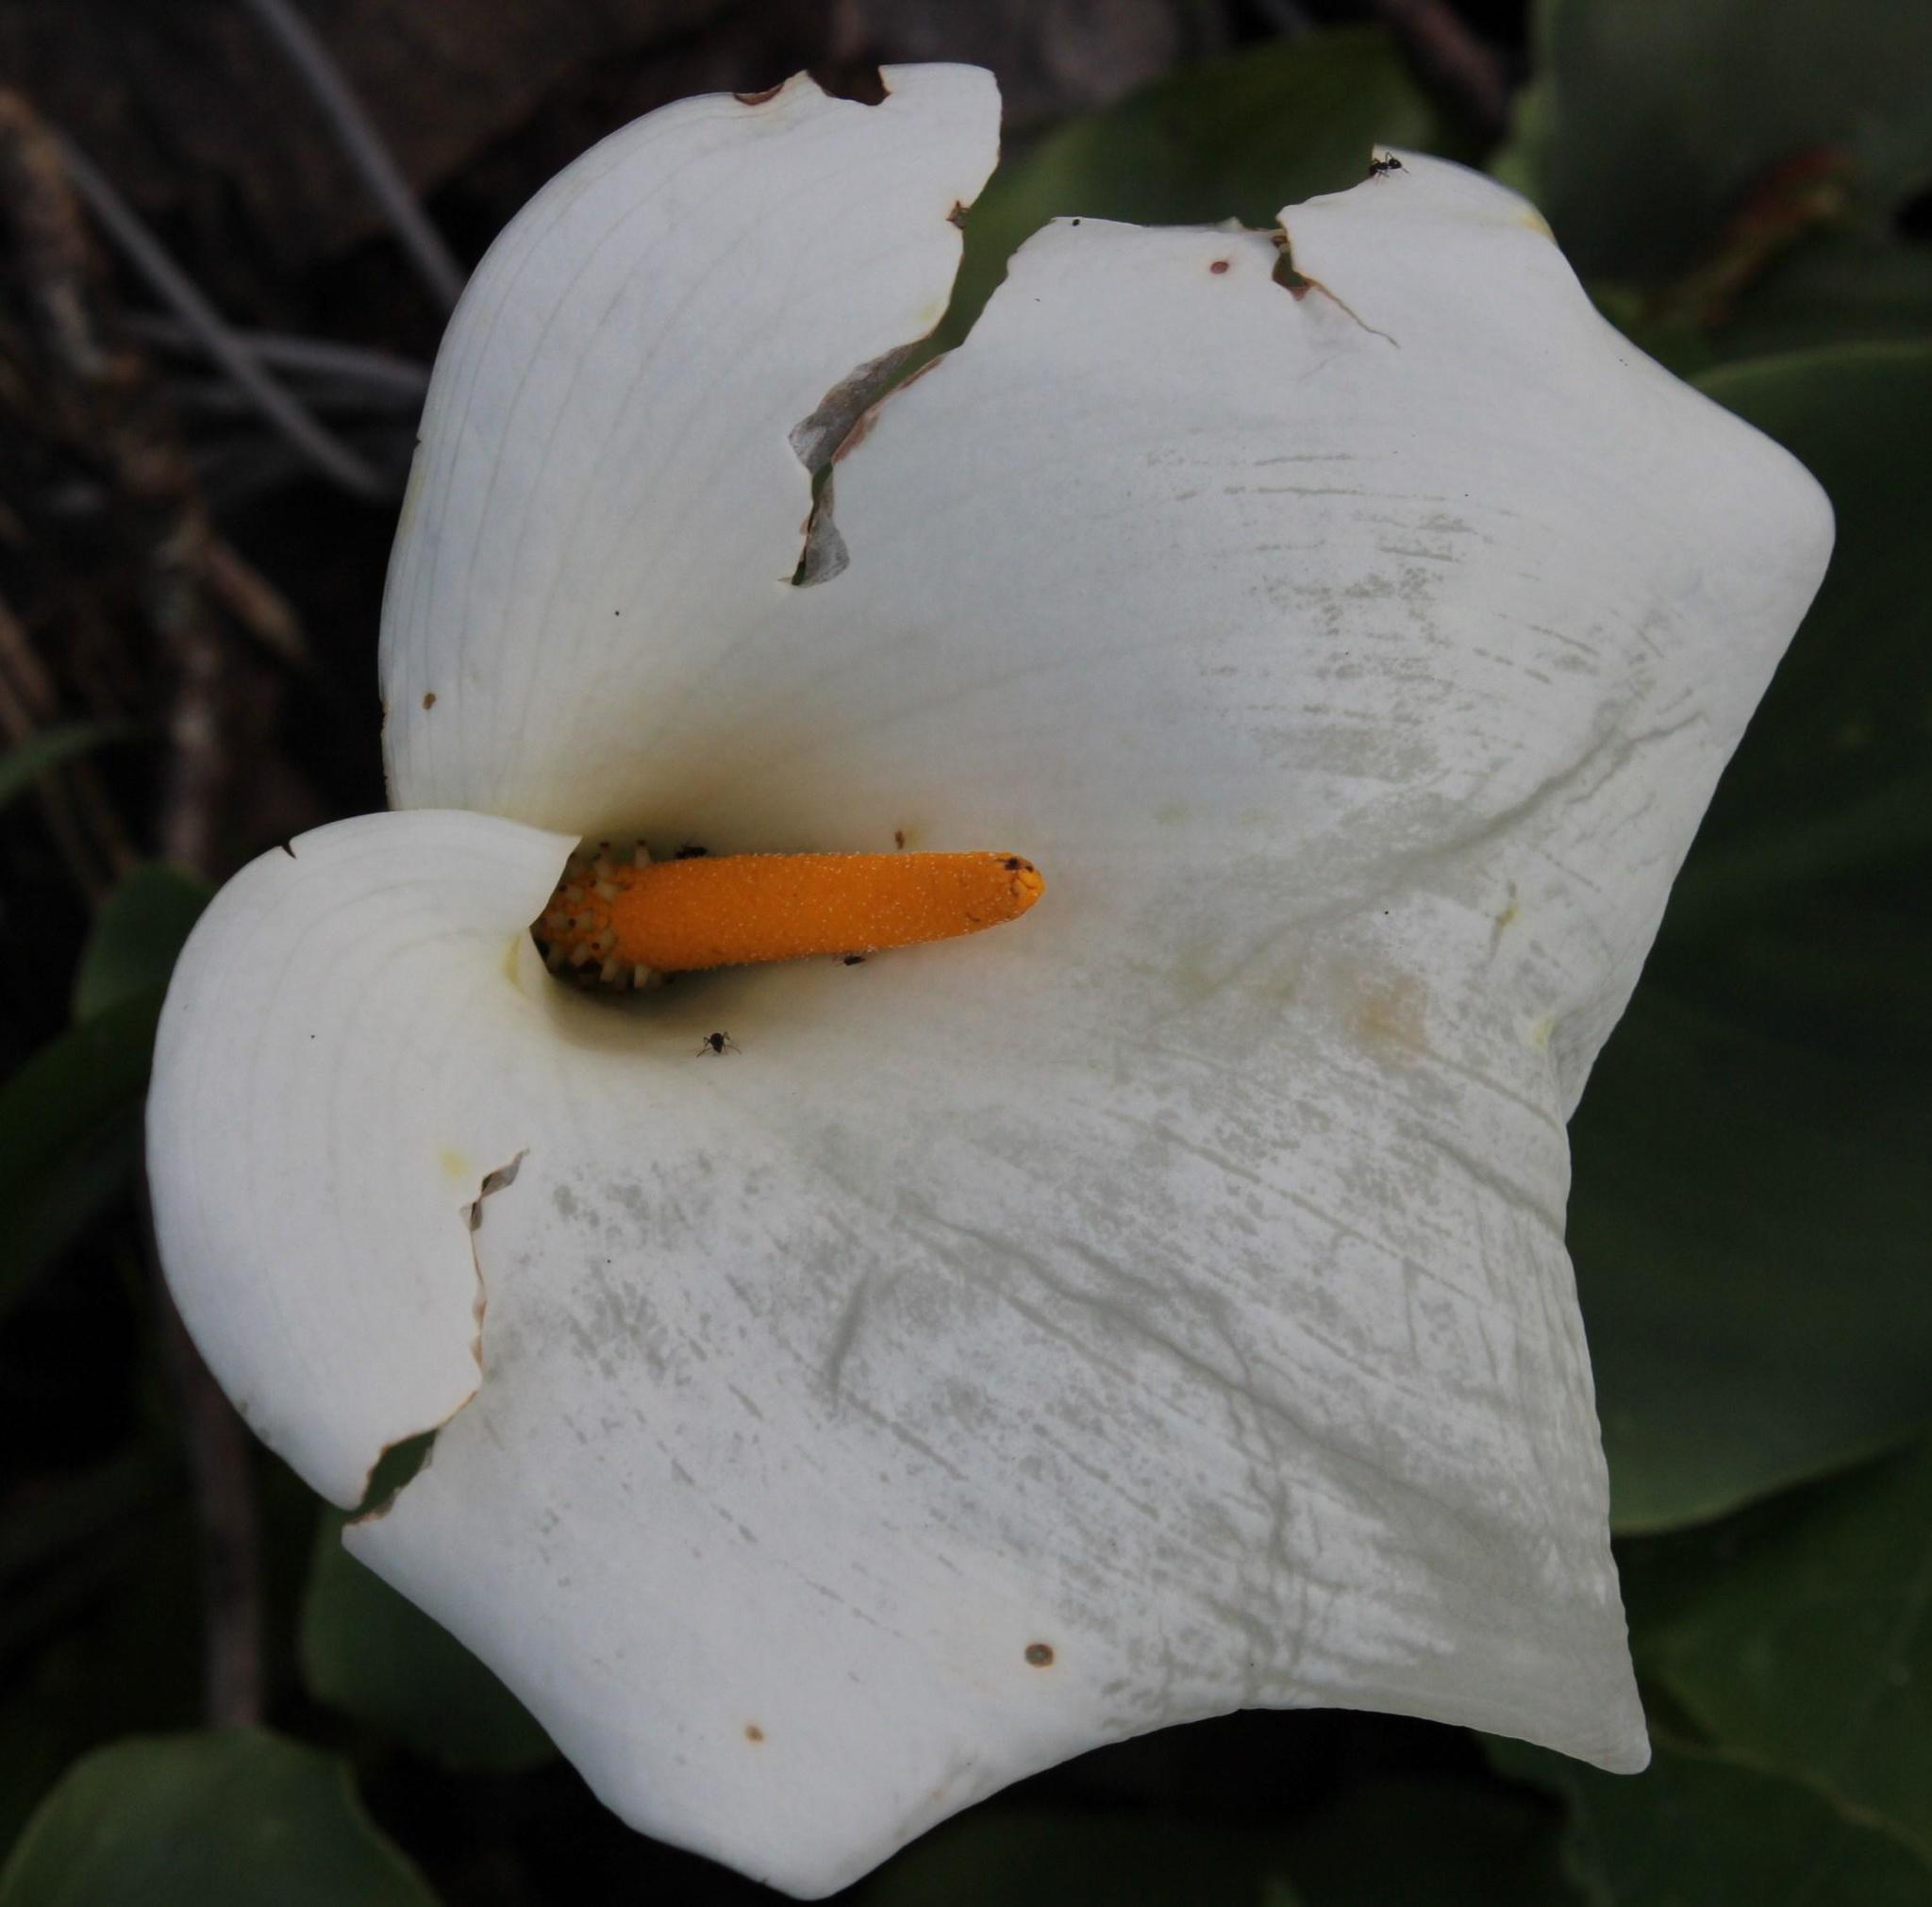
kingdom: Plantae
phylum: Tracheophyta
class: Liliopsida
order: Alismatales
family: Araceae
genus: Zantedeschia
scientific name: Zantedeschia aethiopica
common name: Altar-lily
